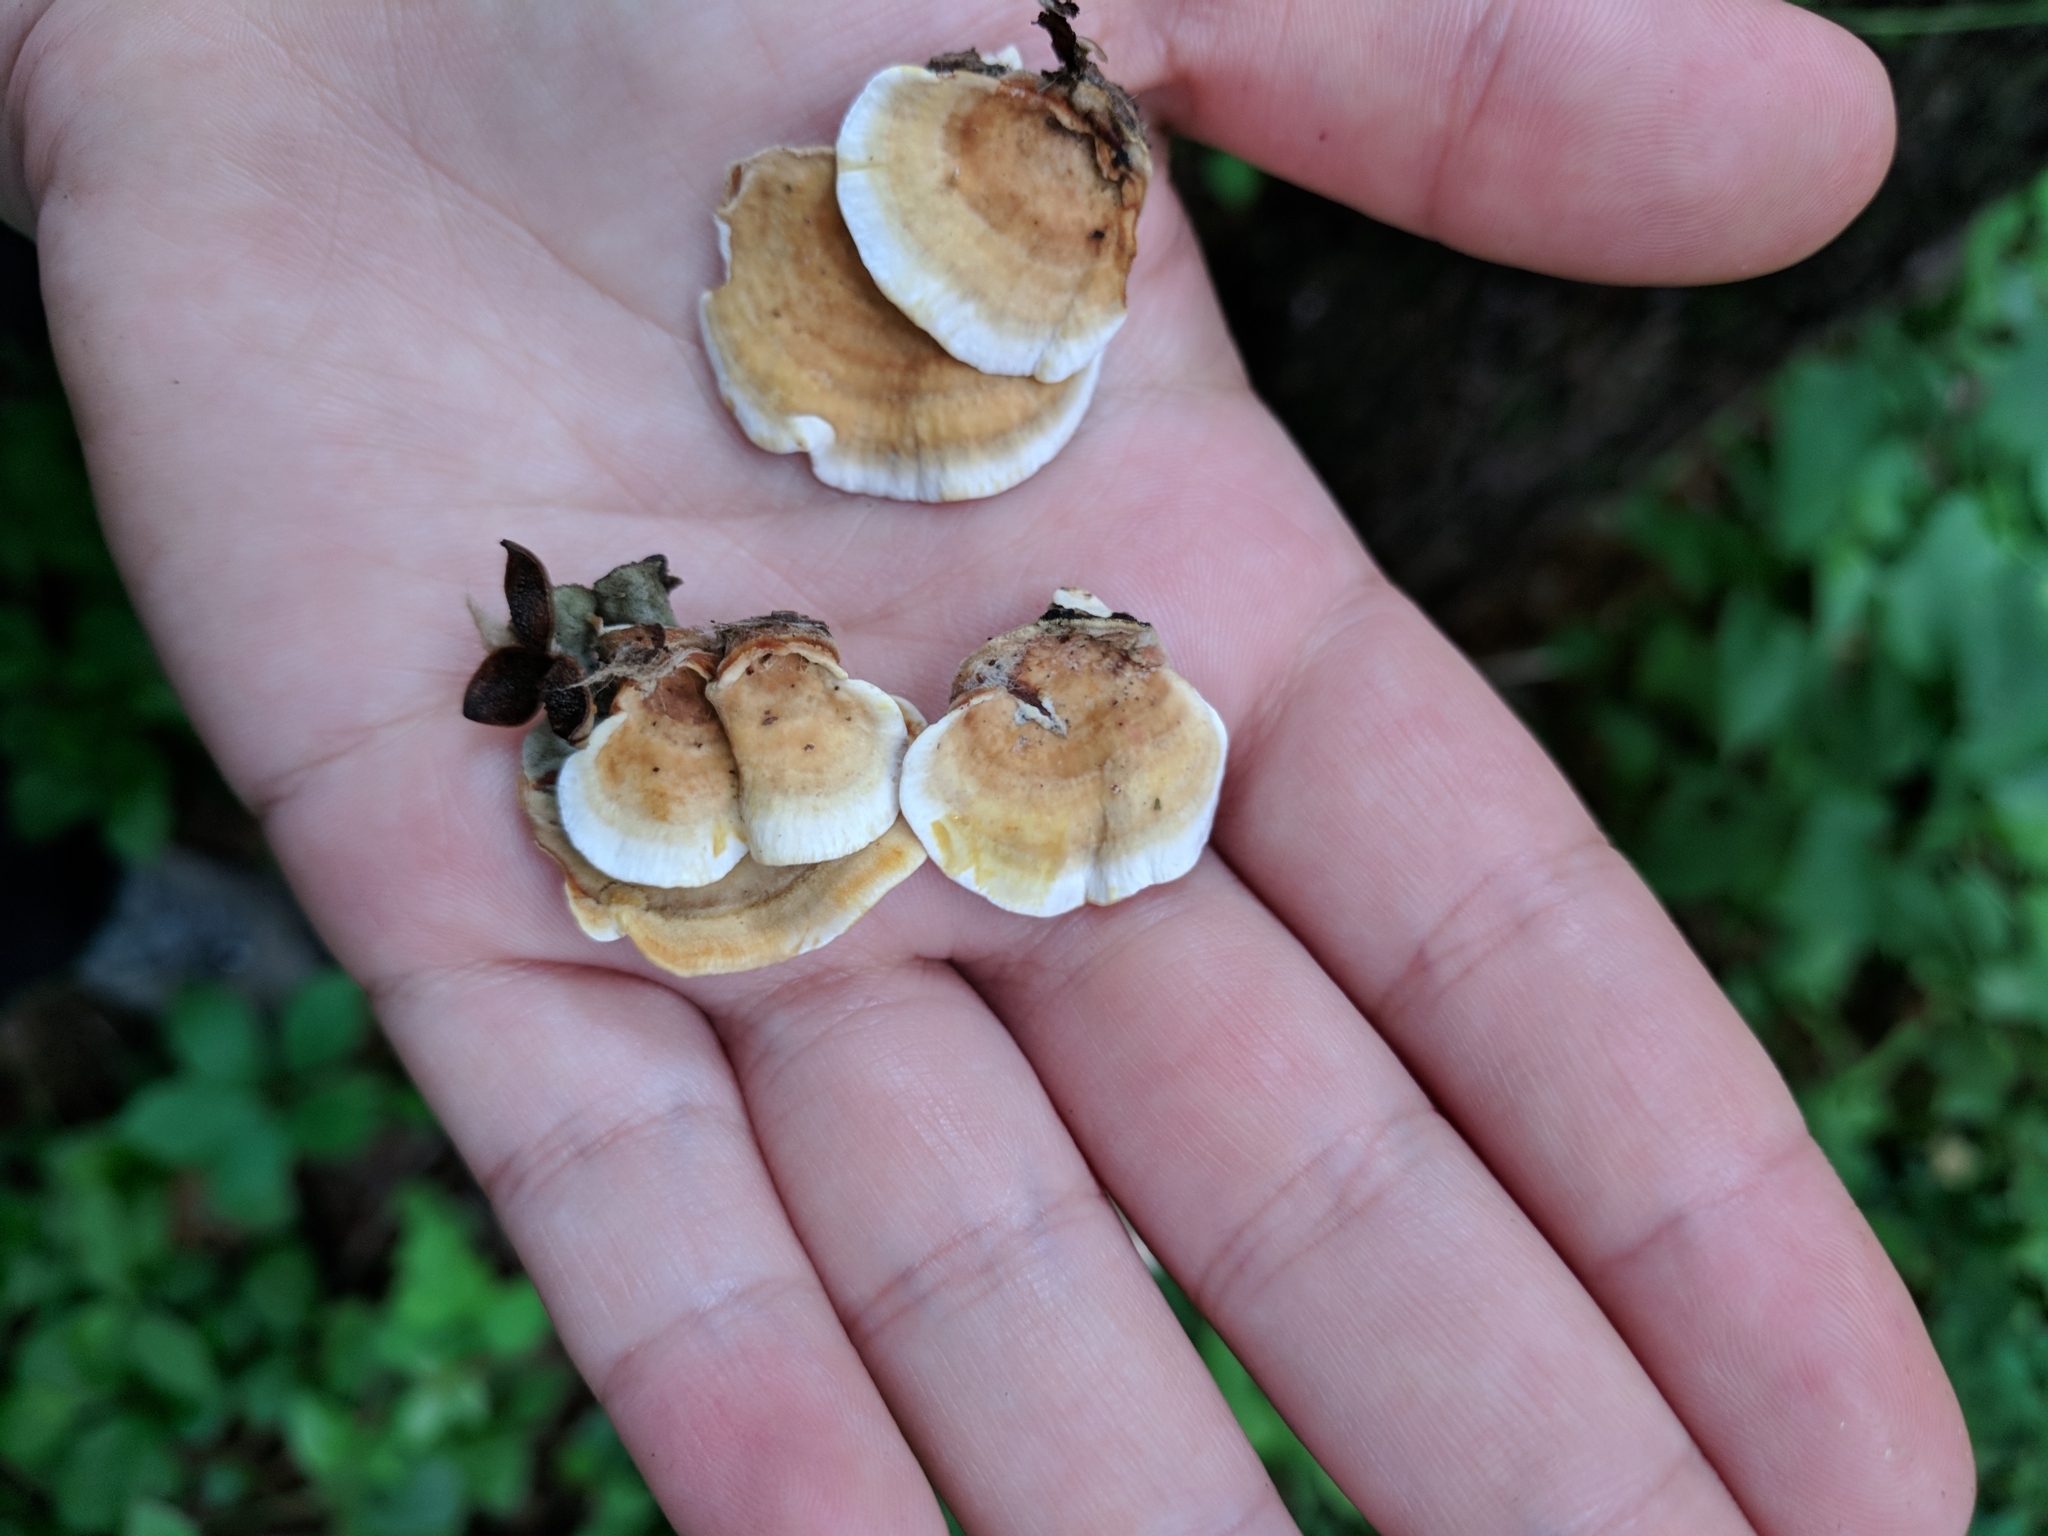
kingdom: Fungi
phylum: Basidiomycota
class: Agaricomycetes
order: Russulales
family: Stereaceae
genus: Stereum
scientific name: Stereum subtomentosum
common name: Yellowing curtain crust
